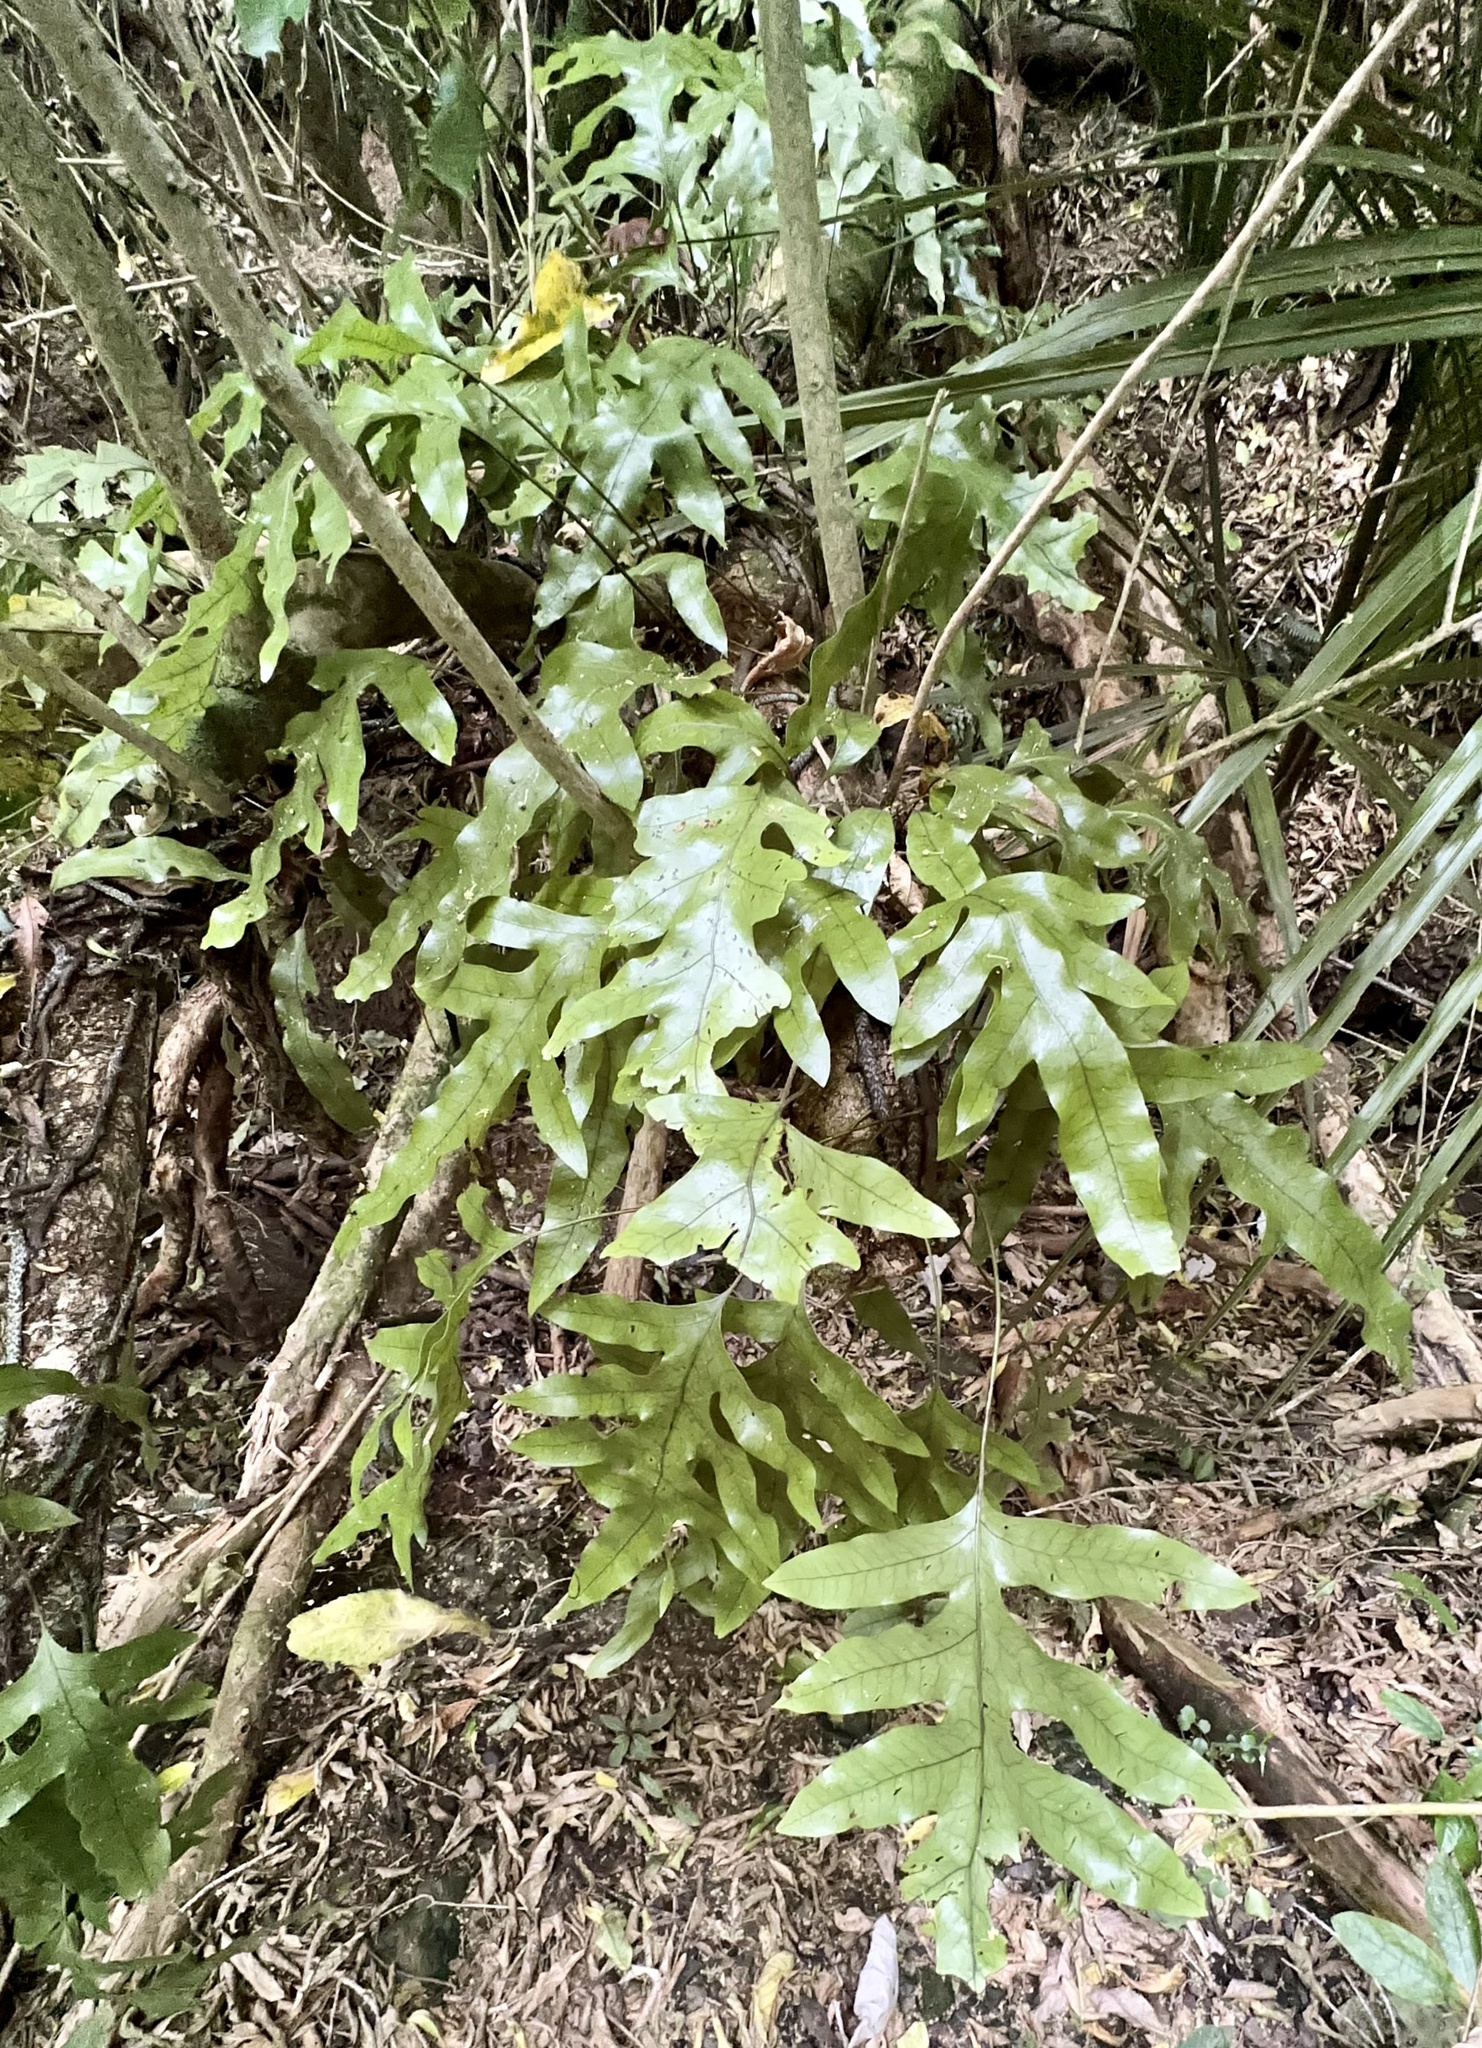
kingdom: Plantae
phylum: Tracheophyta
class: Polypodiopsida
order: Polypodiales
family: Polypodiaceae
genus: Lecanopteris
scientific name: Lecanopteris pustulata
